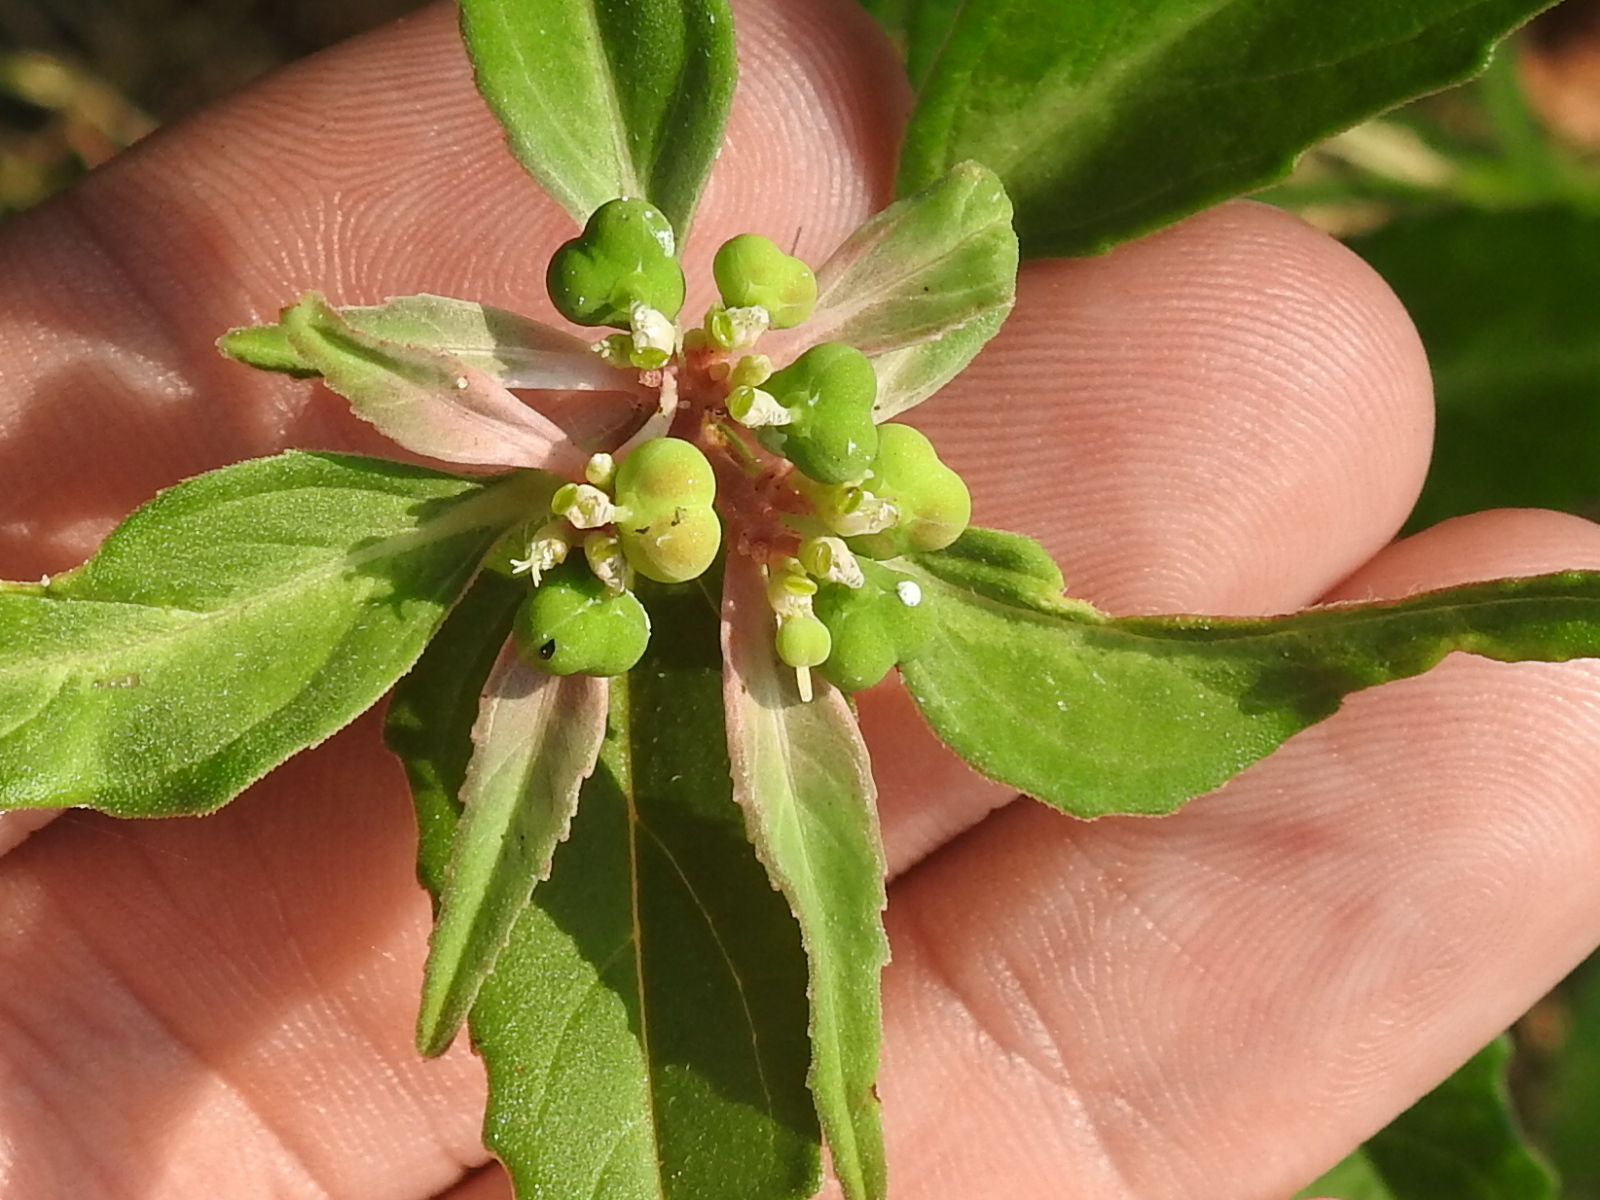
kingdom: Plantae
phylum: Tracheophyta
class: Magnoliopsida
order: Malpighiales
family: Euphorbiaceae
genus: Euphorbia
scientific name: Euphorbia dentata
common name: Dentate spurge
